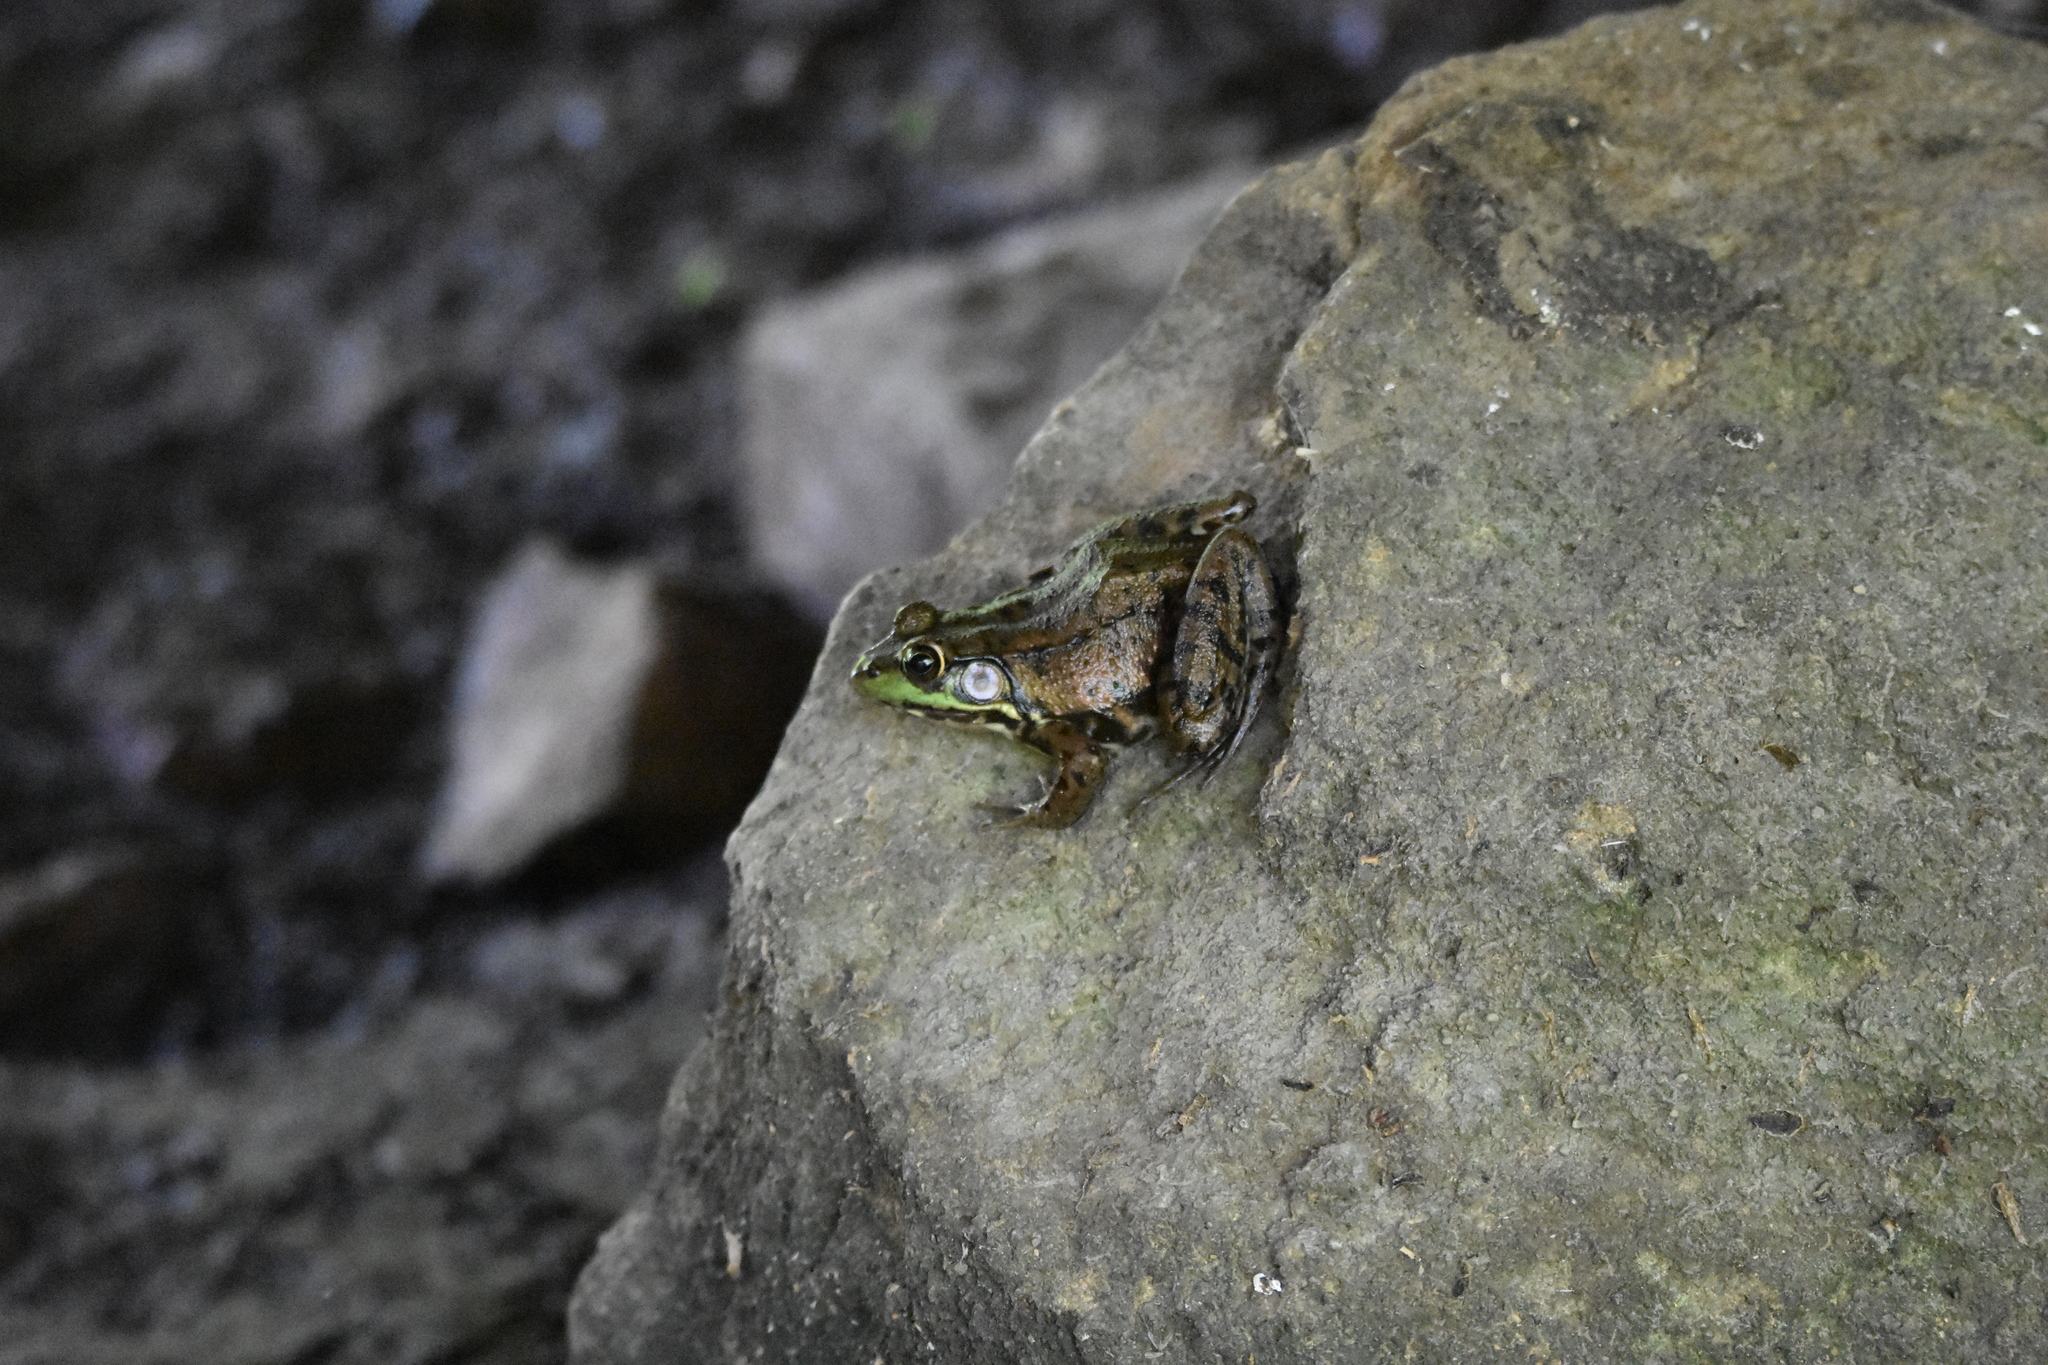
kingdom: Animalia
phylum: Chordata
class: Amphibia
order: Anura
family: Ranidae
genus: Lithobates
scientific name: Lithobates clamitans
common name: Green frog
